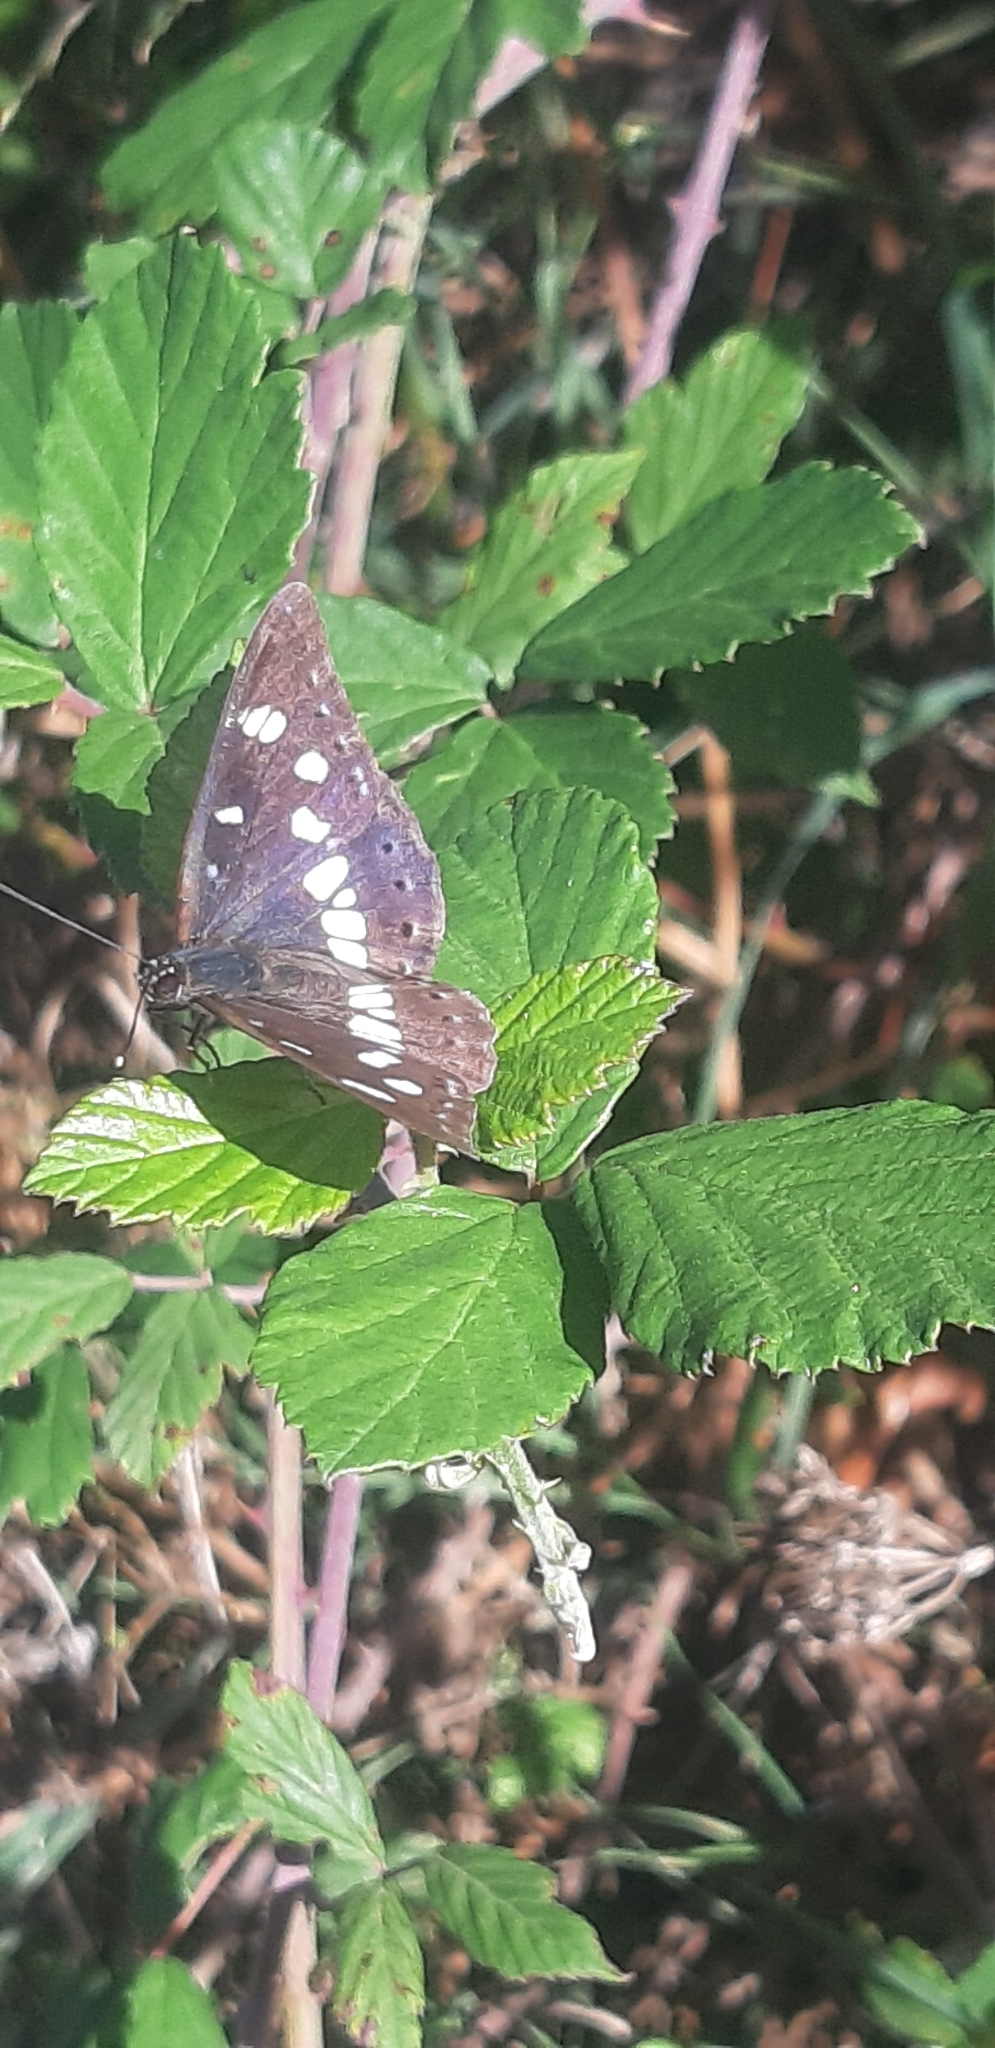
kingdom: Animalia
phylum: Arthropoda
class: Insecta
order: Lepidoptera
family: Nymphalidae
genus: Limenitis
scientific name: Limenitis reducta
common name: Southern white admiral
